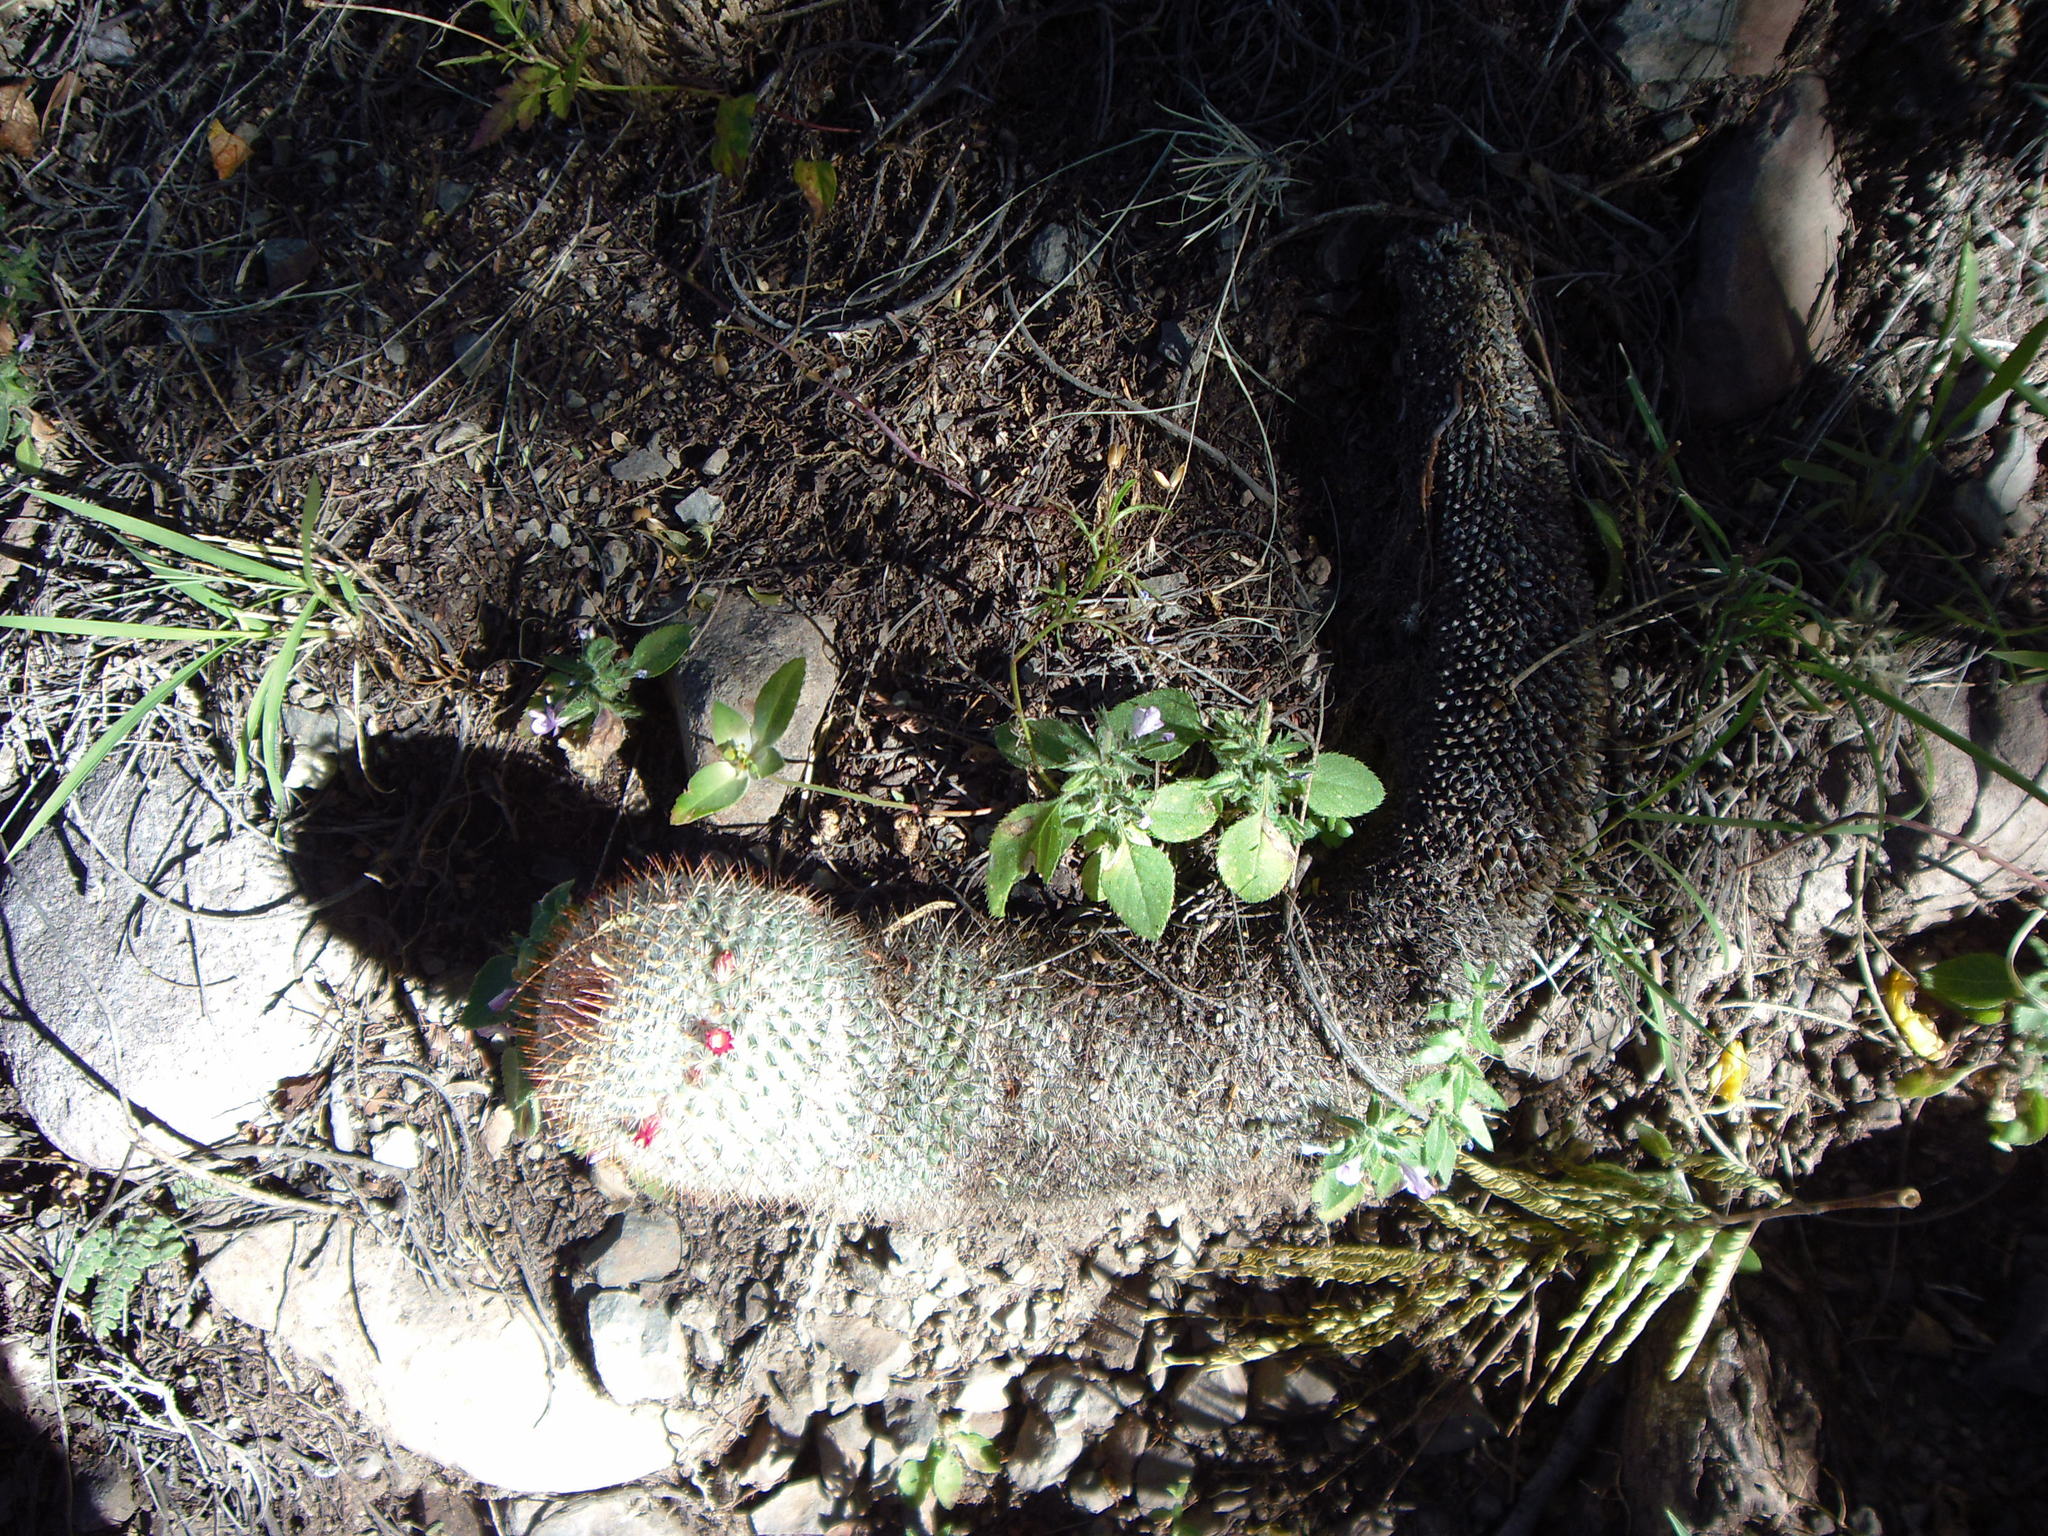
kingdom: Plantae
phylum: Tracheophyta
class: Magnoliopsida
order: Caryophyllales
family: Cactaceae
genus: Mammillaria
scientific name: Mammillaria haageana
